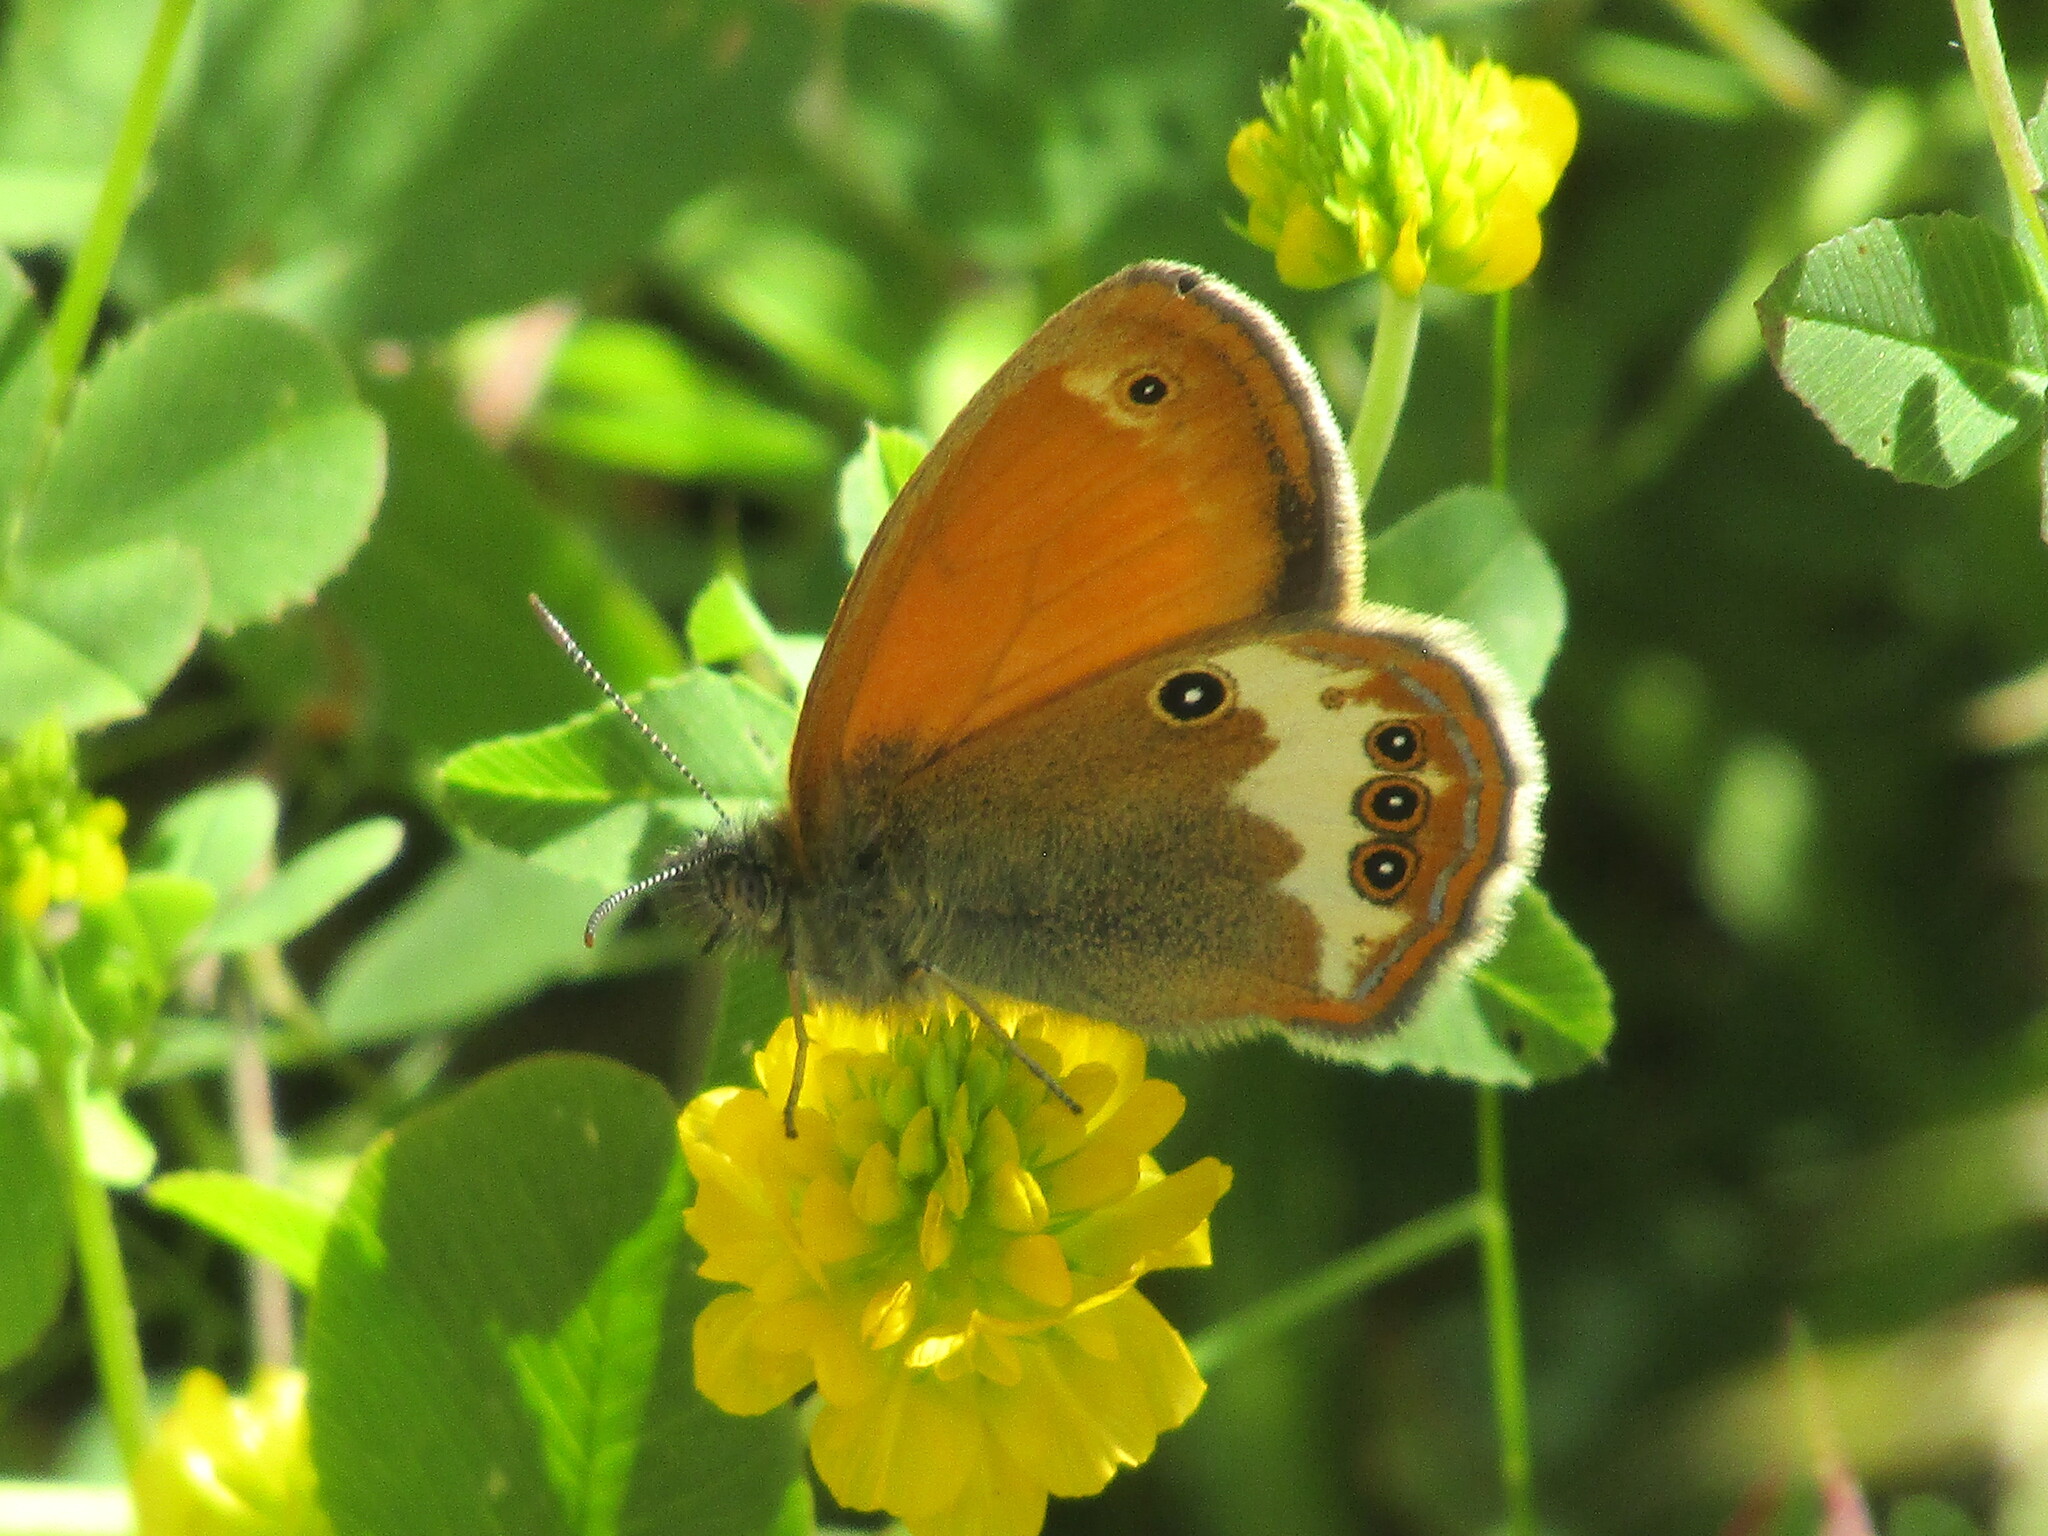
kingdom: Animalia
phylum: Arthropoda
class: Insecta
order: Lepidoptera
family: Nymphalidae
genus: Coenonympha
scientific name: Coenonympha arcania
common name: Pearly heath
